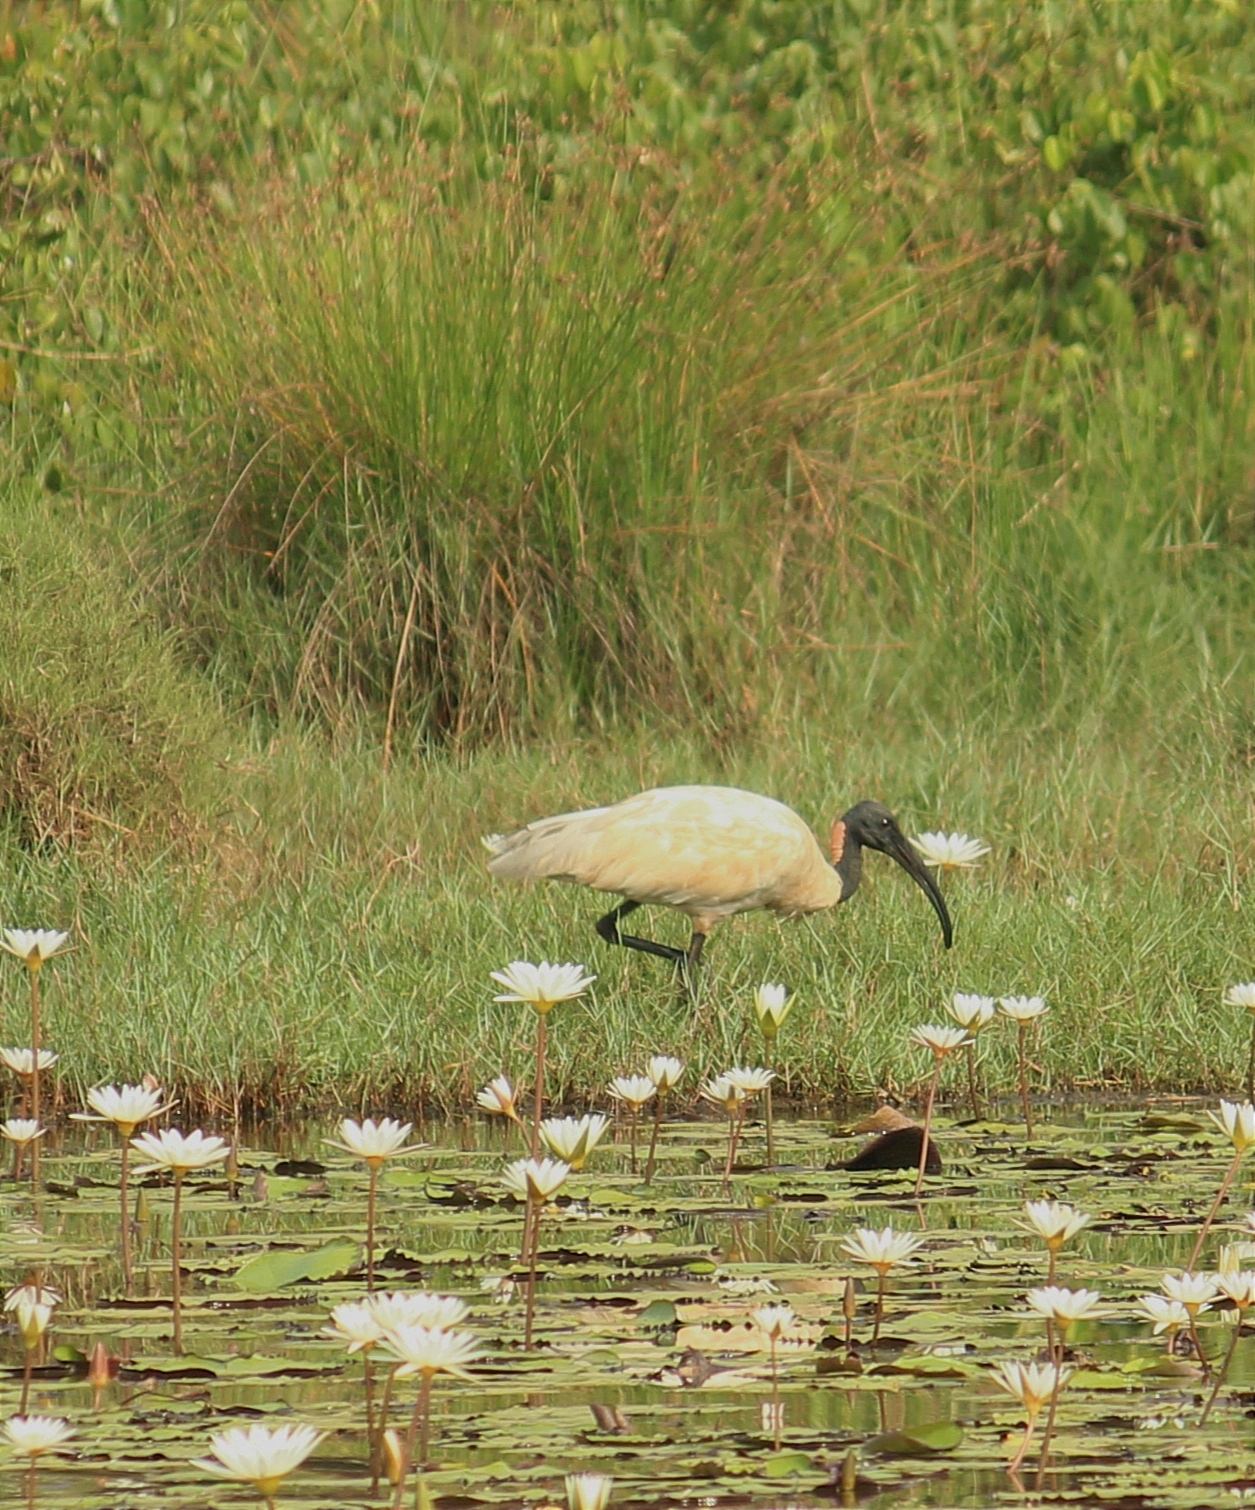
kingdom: Animalia
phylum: Chordata
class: Aves
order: Pelecaniformes
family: Threskiornithidae
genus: Threskiornis
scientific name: Threskiornis melanocephalus
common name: Black-headed ibis
